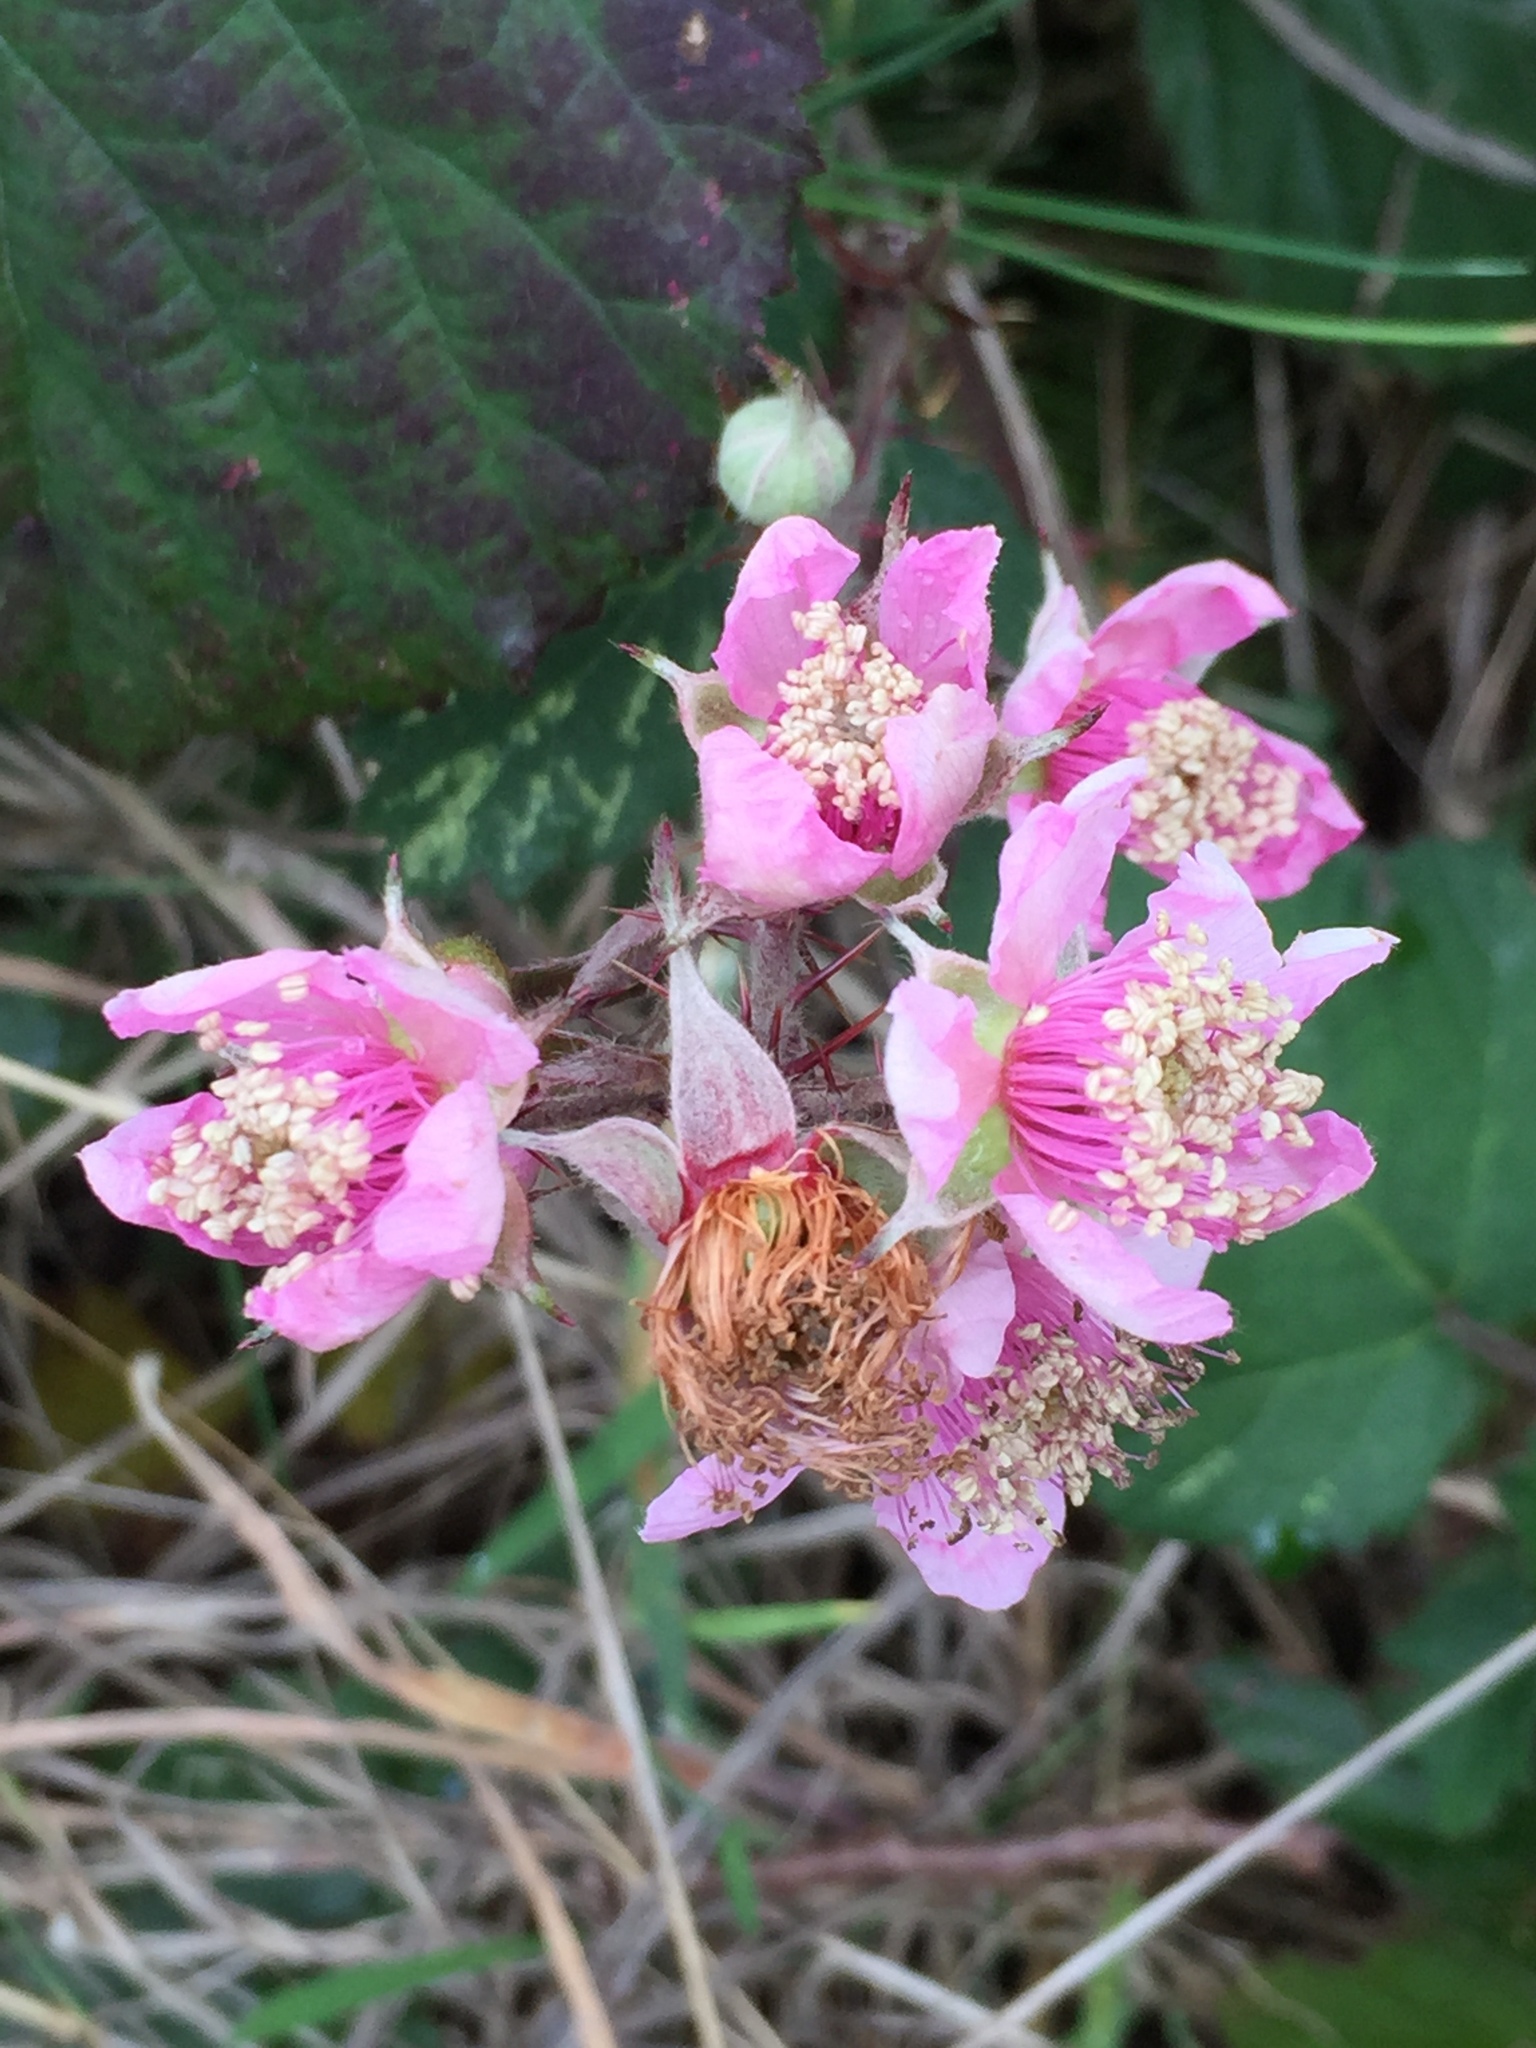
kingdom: Plantae
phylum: Tracheophyta
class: Magnoliopsida
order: Rosales
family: Rosaceae
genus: Rubus
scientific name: Rubus vestitus
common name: European blackberry
